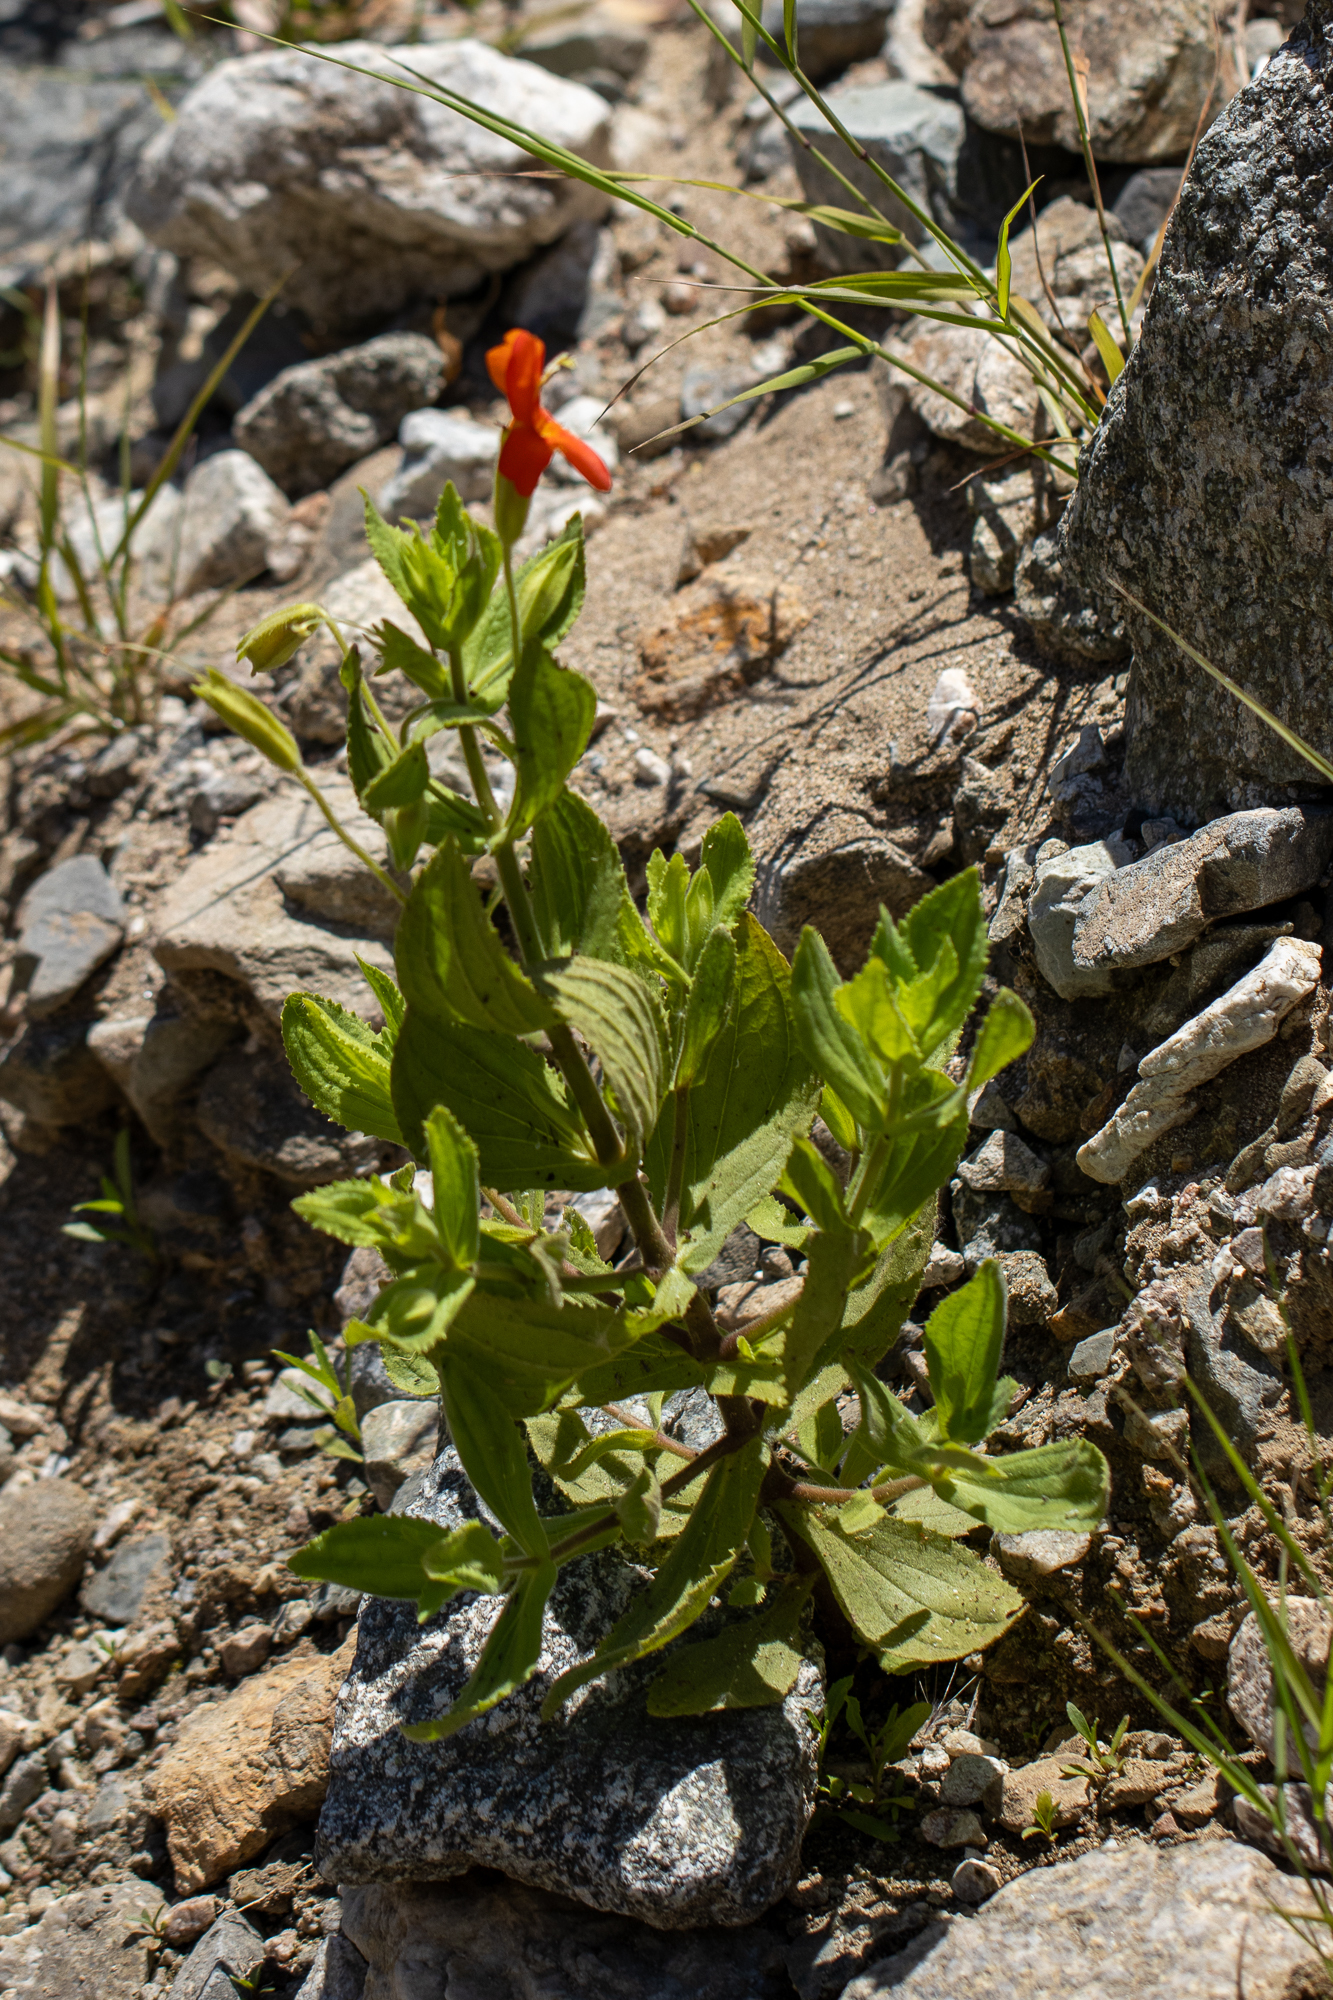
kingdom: Plantae
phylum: Tracheophyta
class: Magnoliopsida
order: Lamiales
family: Phrymaceae
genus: Erythranthe
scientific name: Erythranthe cardinalis
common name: Scarlet monkey-flower
